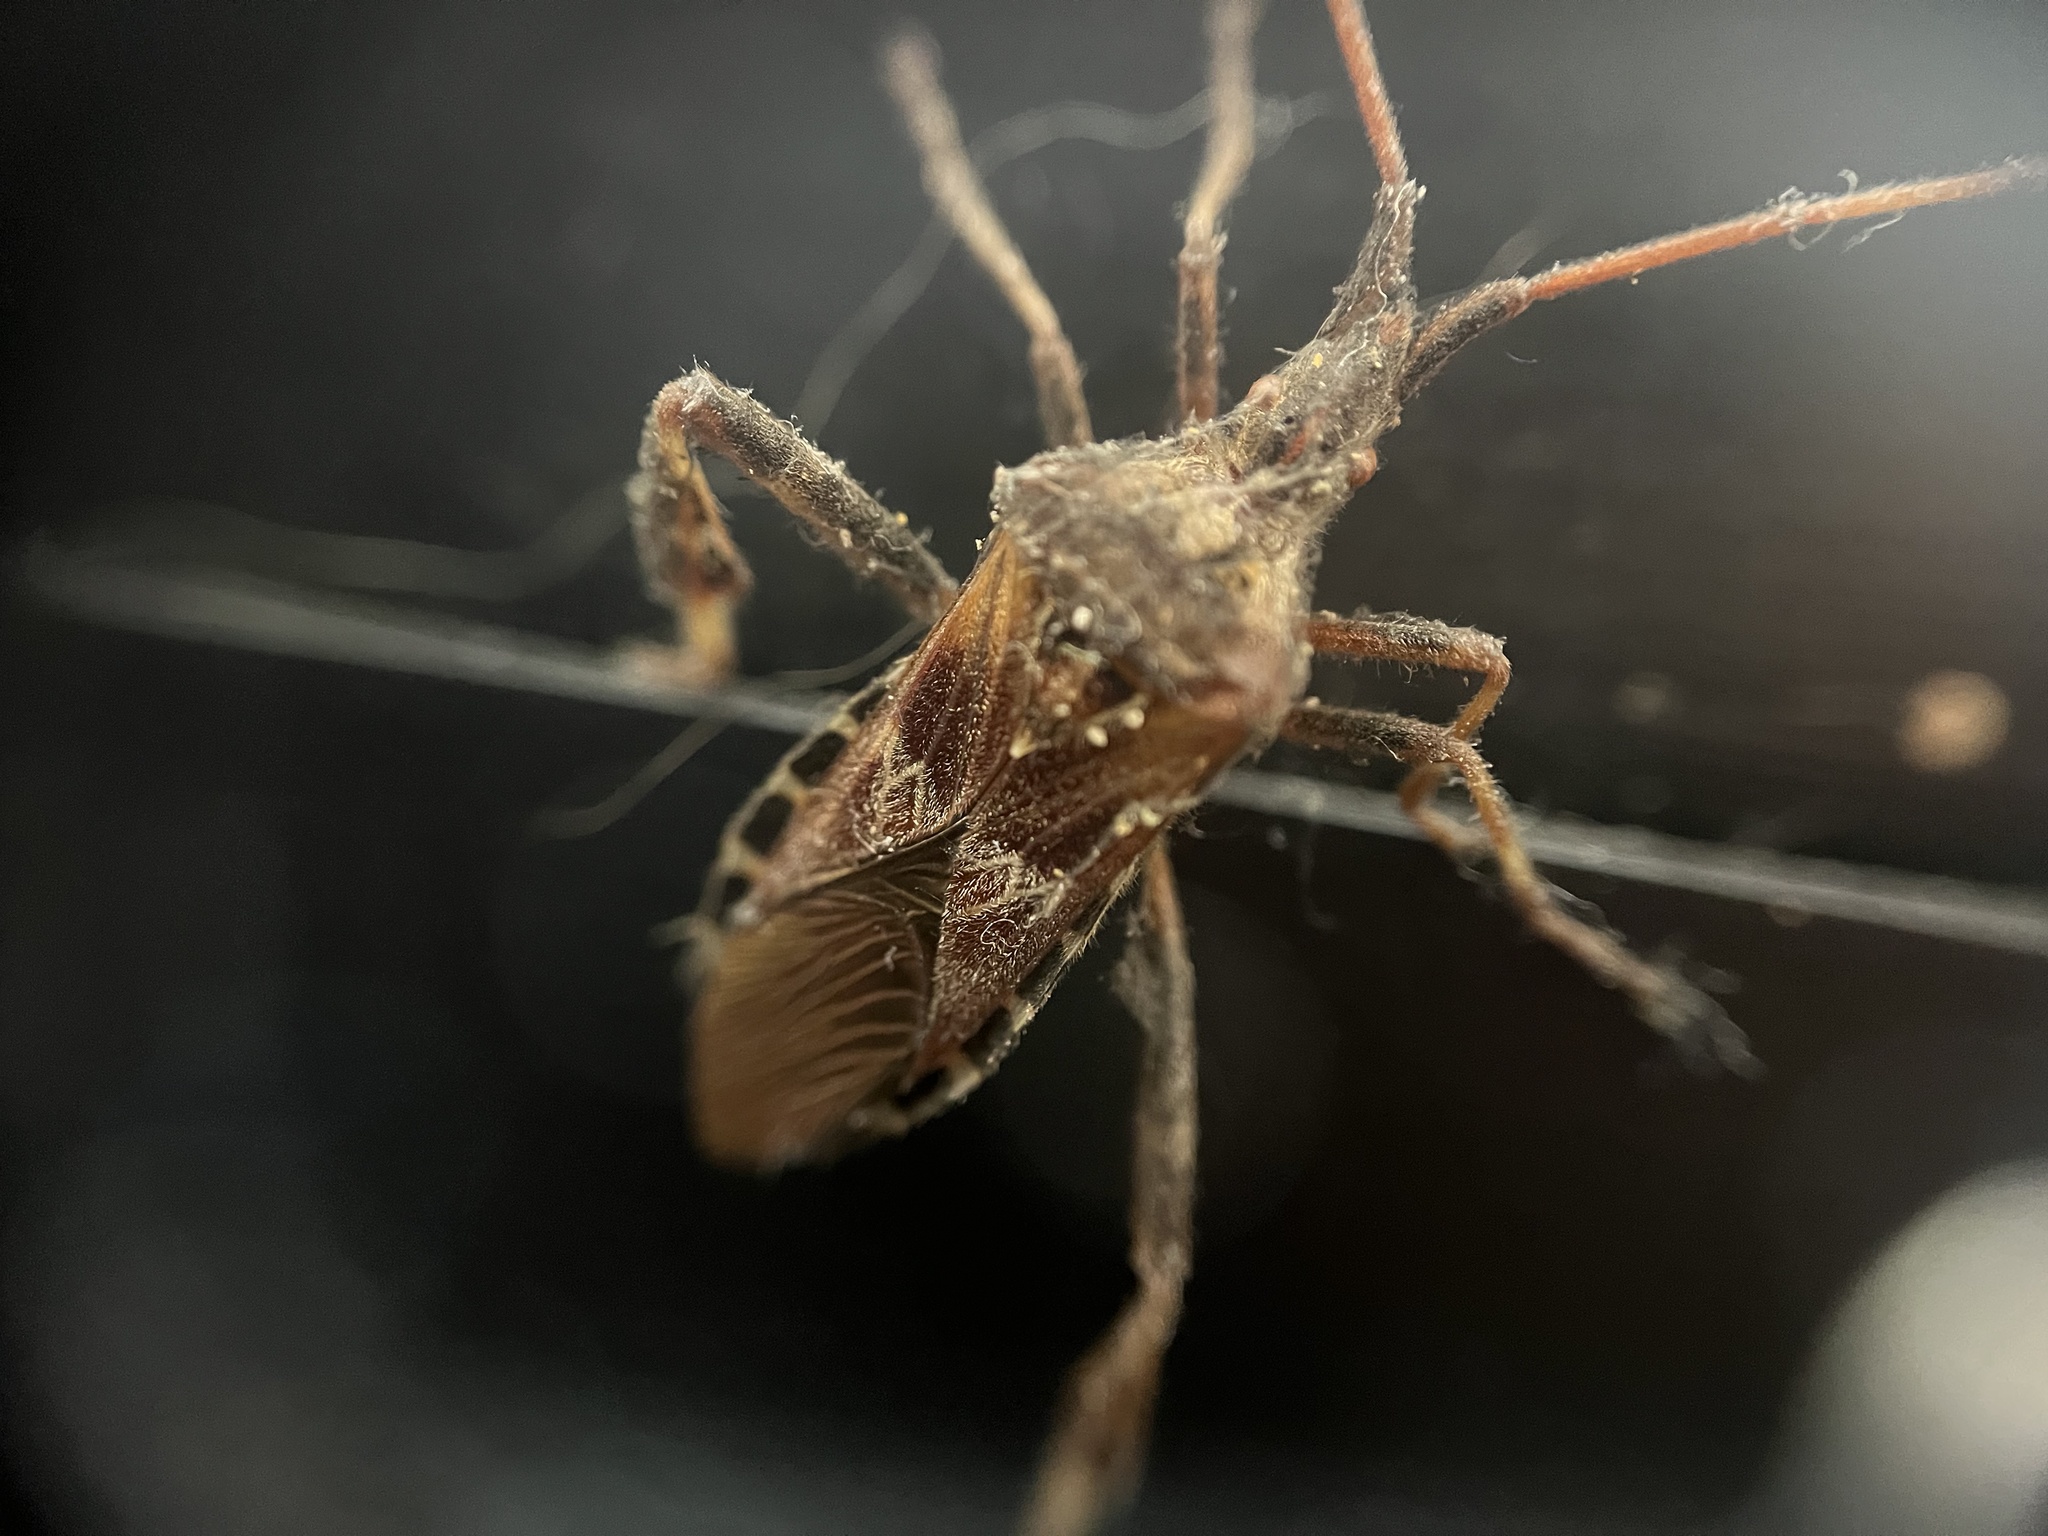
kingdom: Animalia
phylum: Arthropoda
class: Insecta
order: Hemiptera
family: Coreidae
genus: Leptoglossus
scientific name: Leptoglossus occidentalis
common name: Western conifer-seed bug
